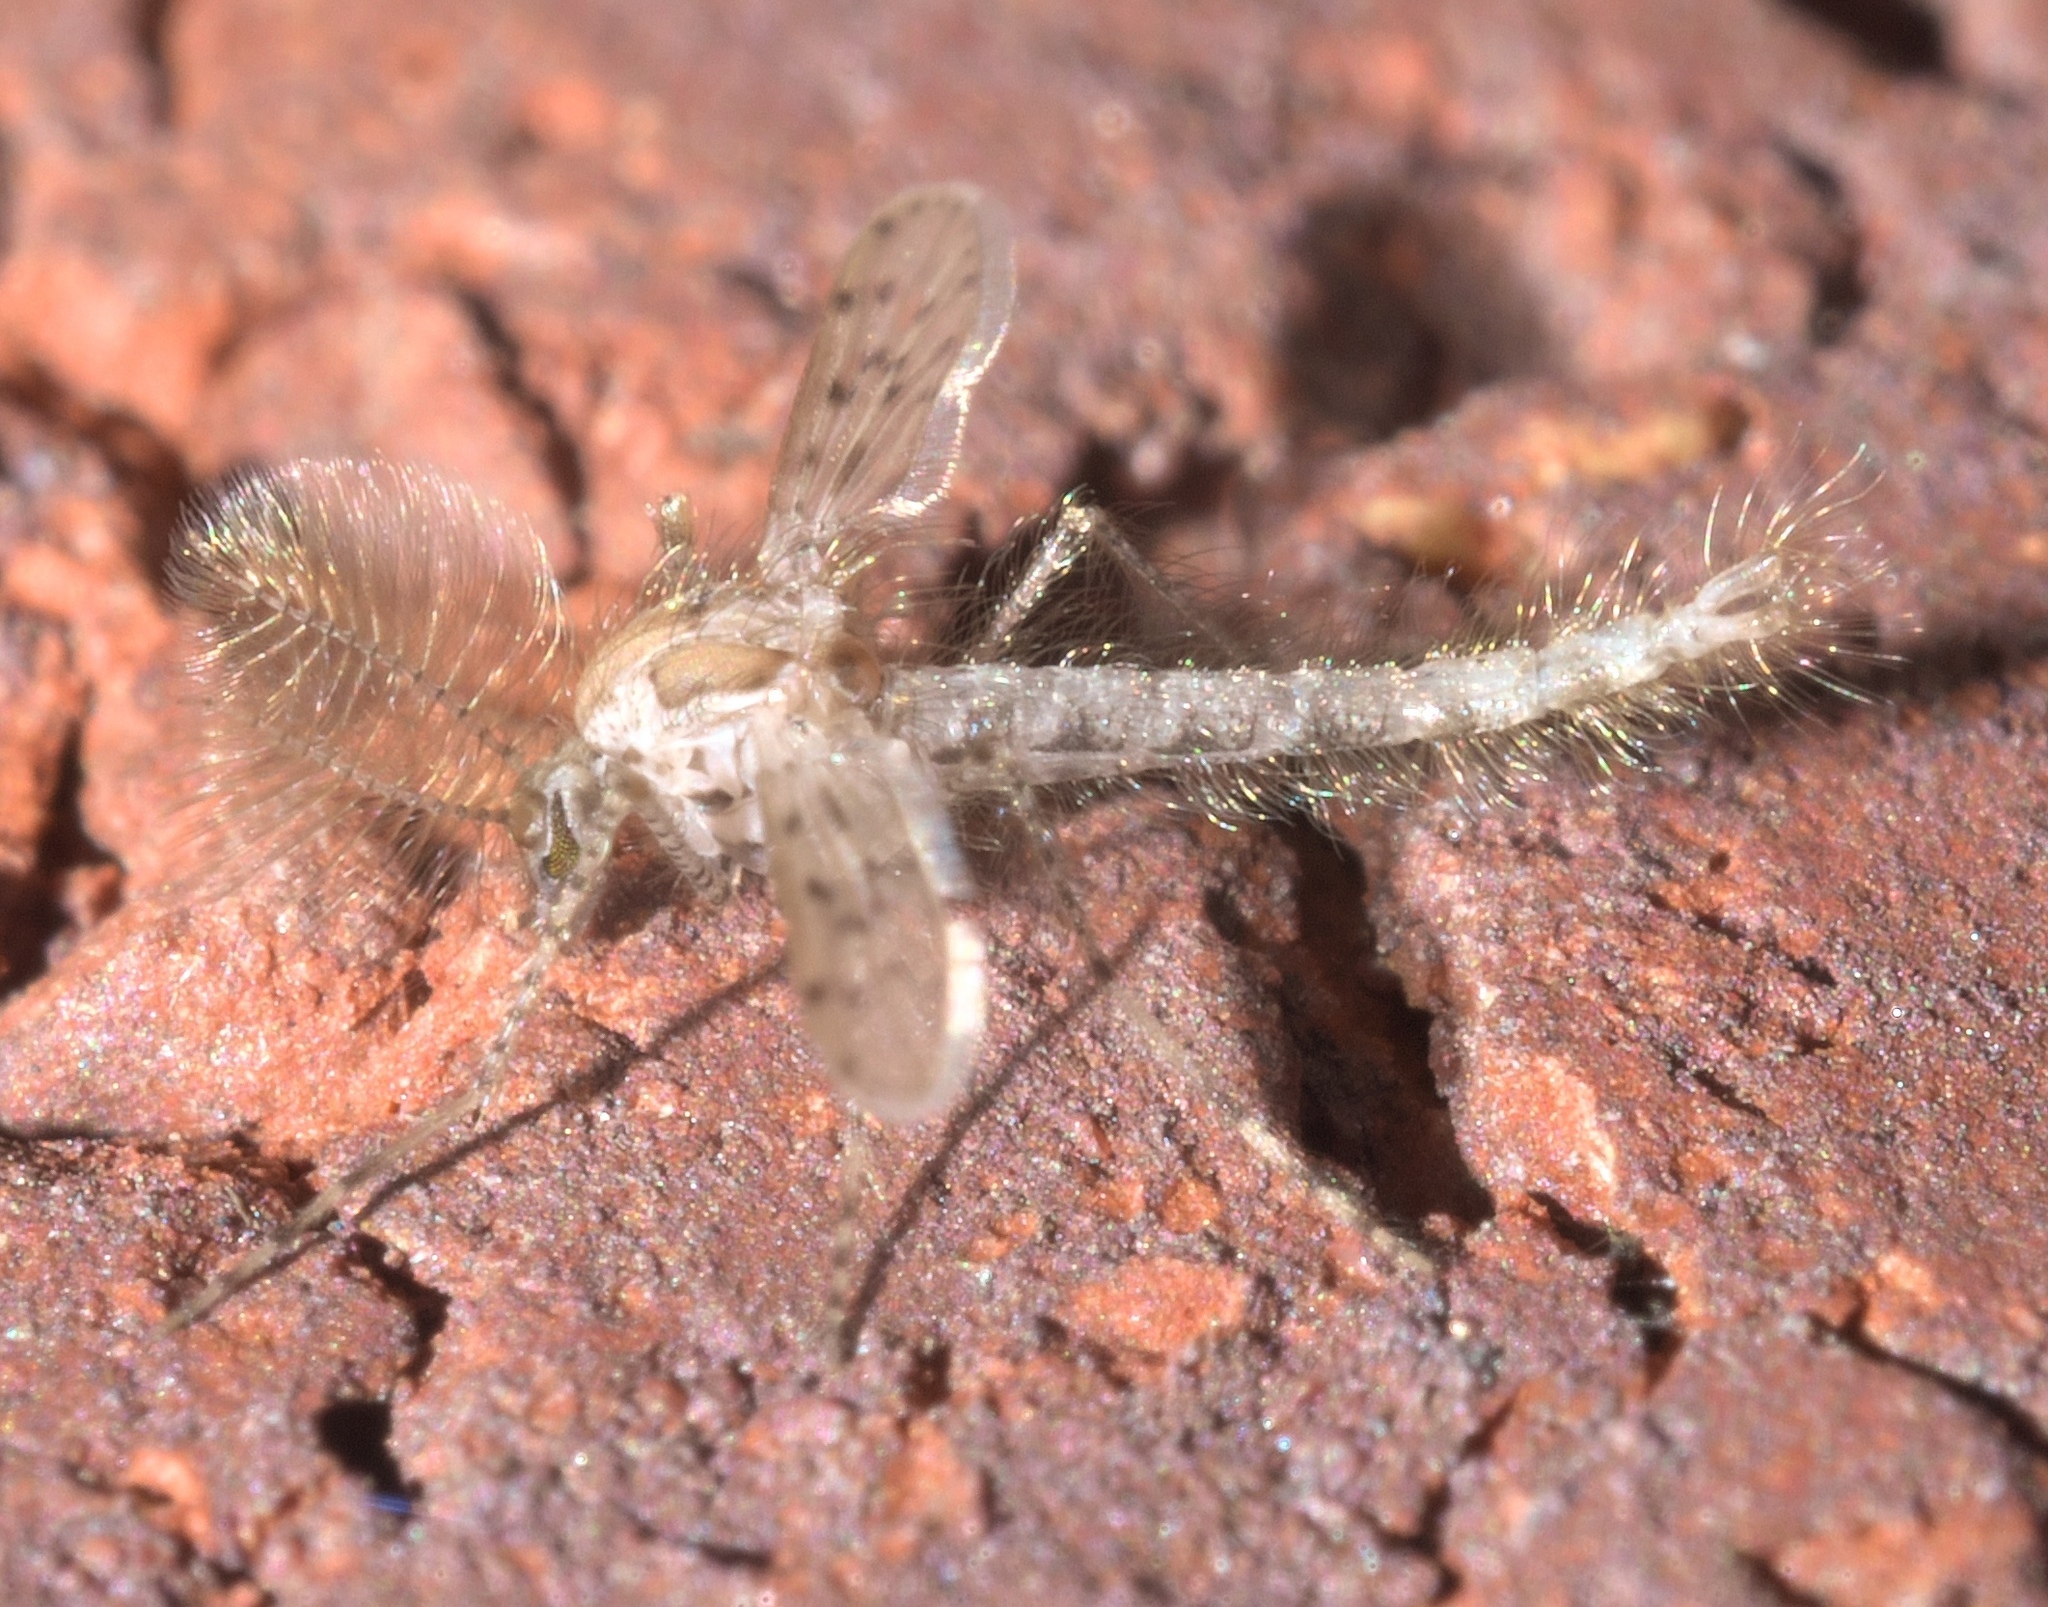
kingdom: Animalia
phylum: Arthropoda
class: Insecta
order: Diptera
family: Chaoboridae
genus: Chaoborus
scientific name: Chaoborus punctipennis
